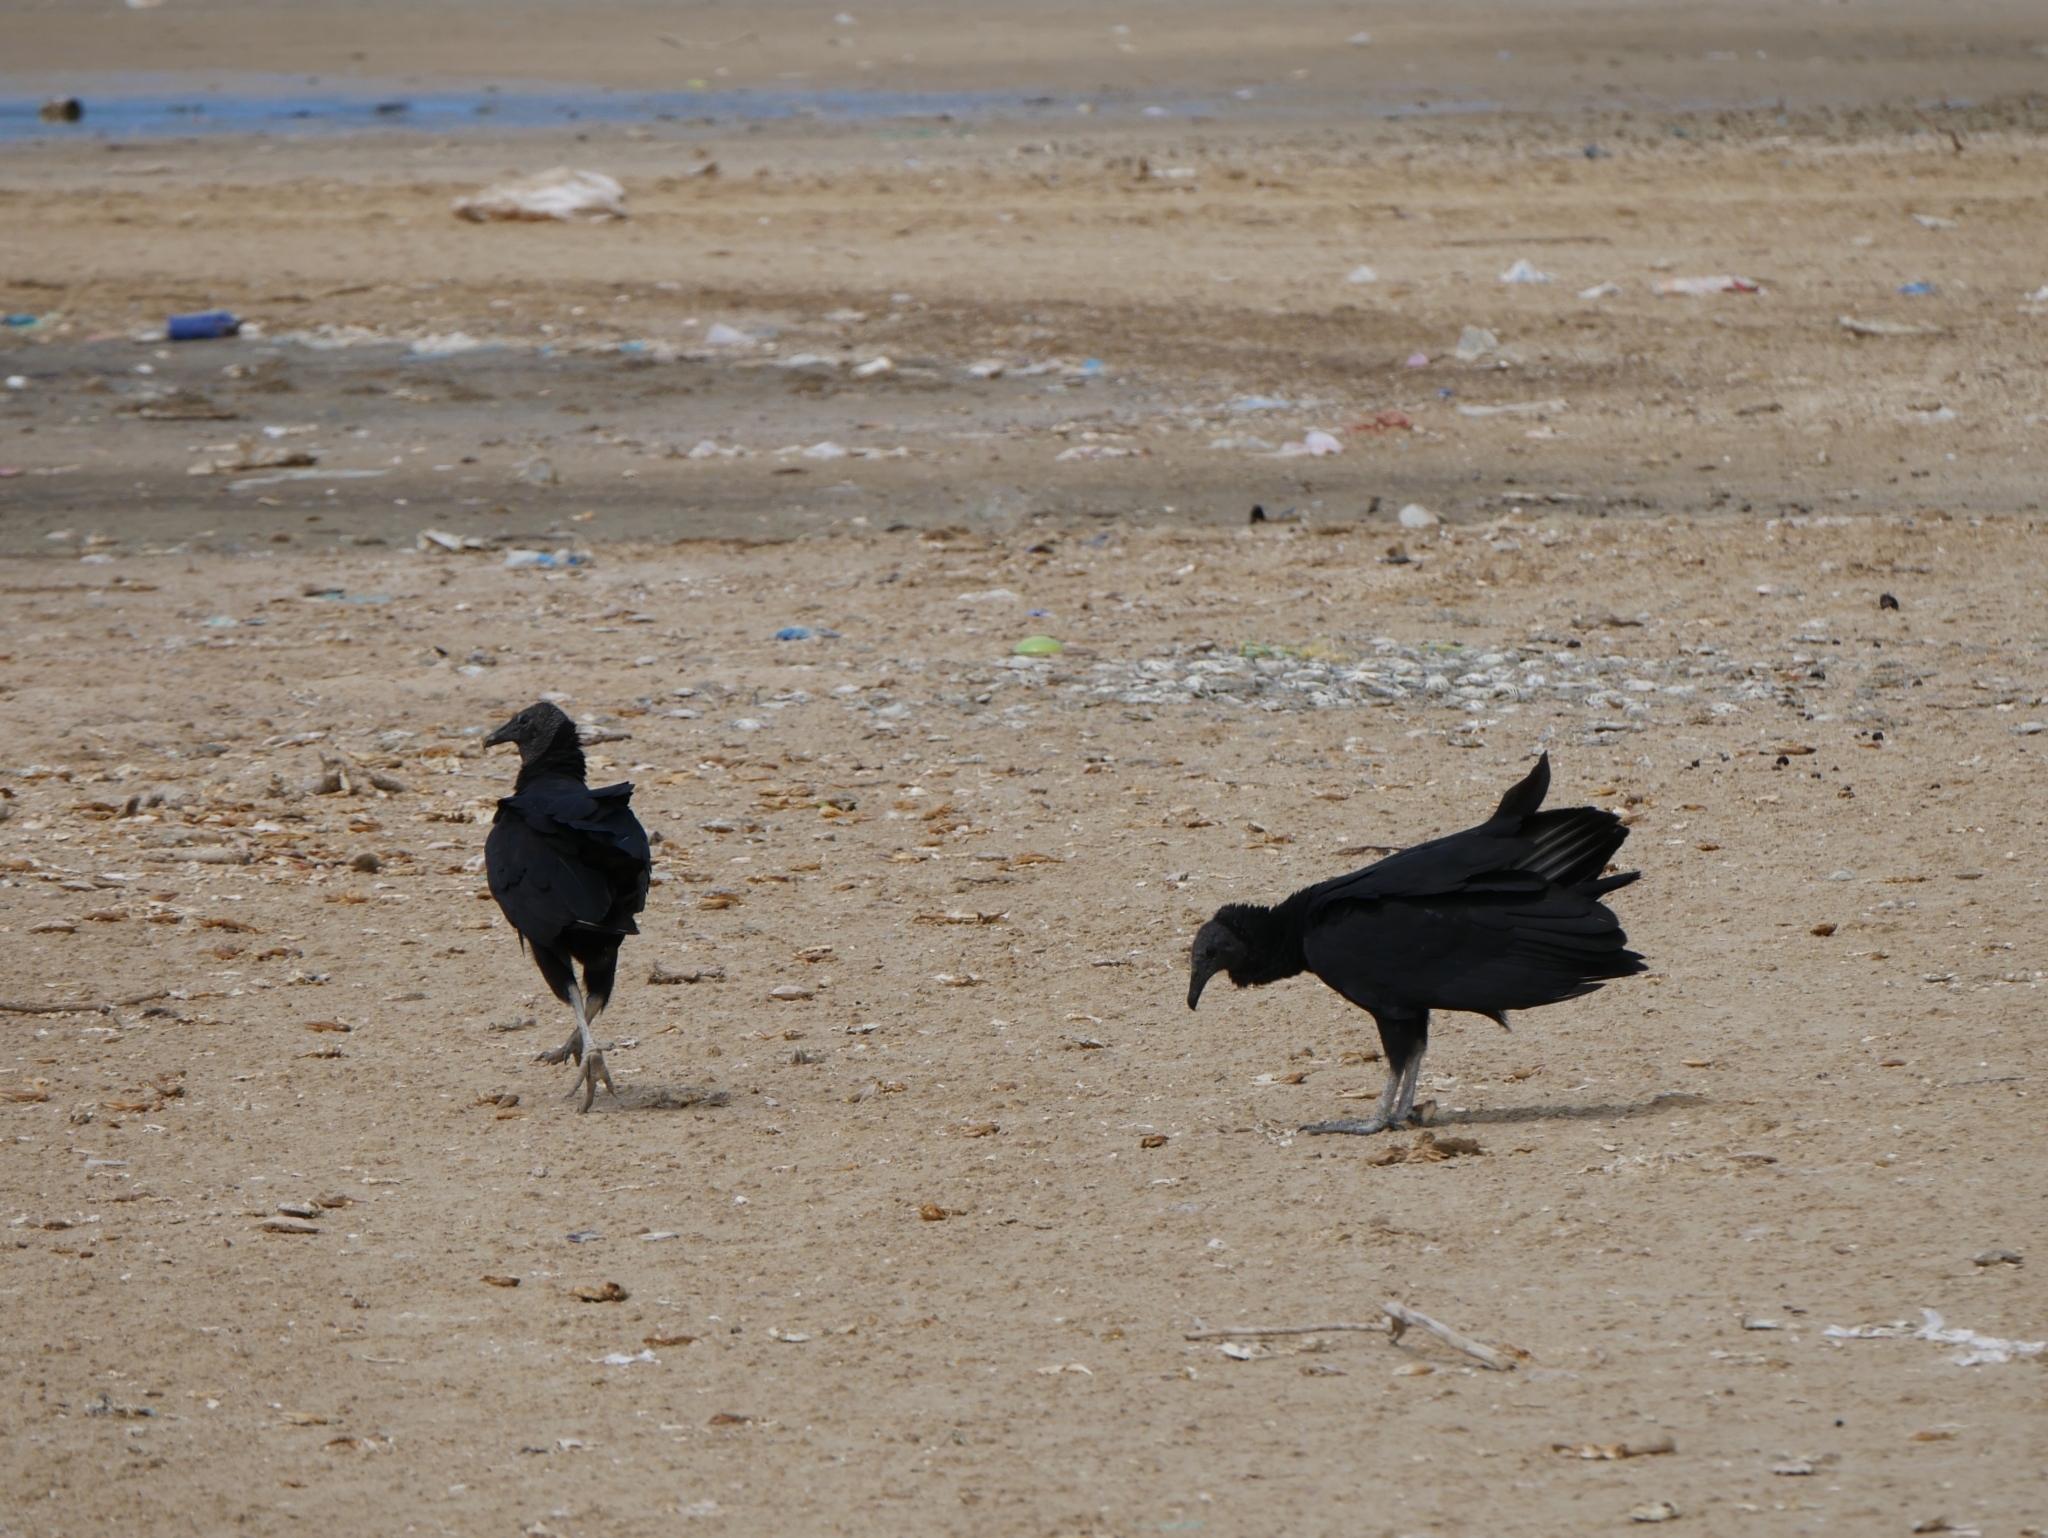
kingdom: Animalia
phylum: Chordata
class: Aves
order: Accipitriformes
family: Cathartidae
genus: Coragyps
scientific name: Coragyps atratus
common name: Black vulture
